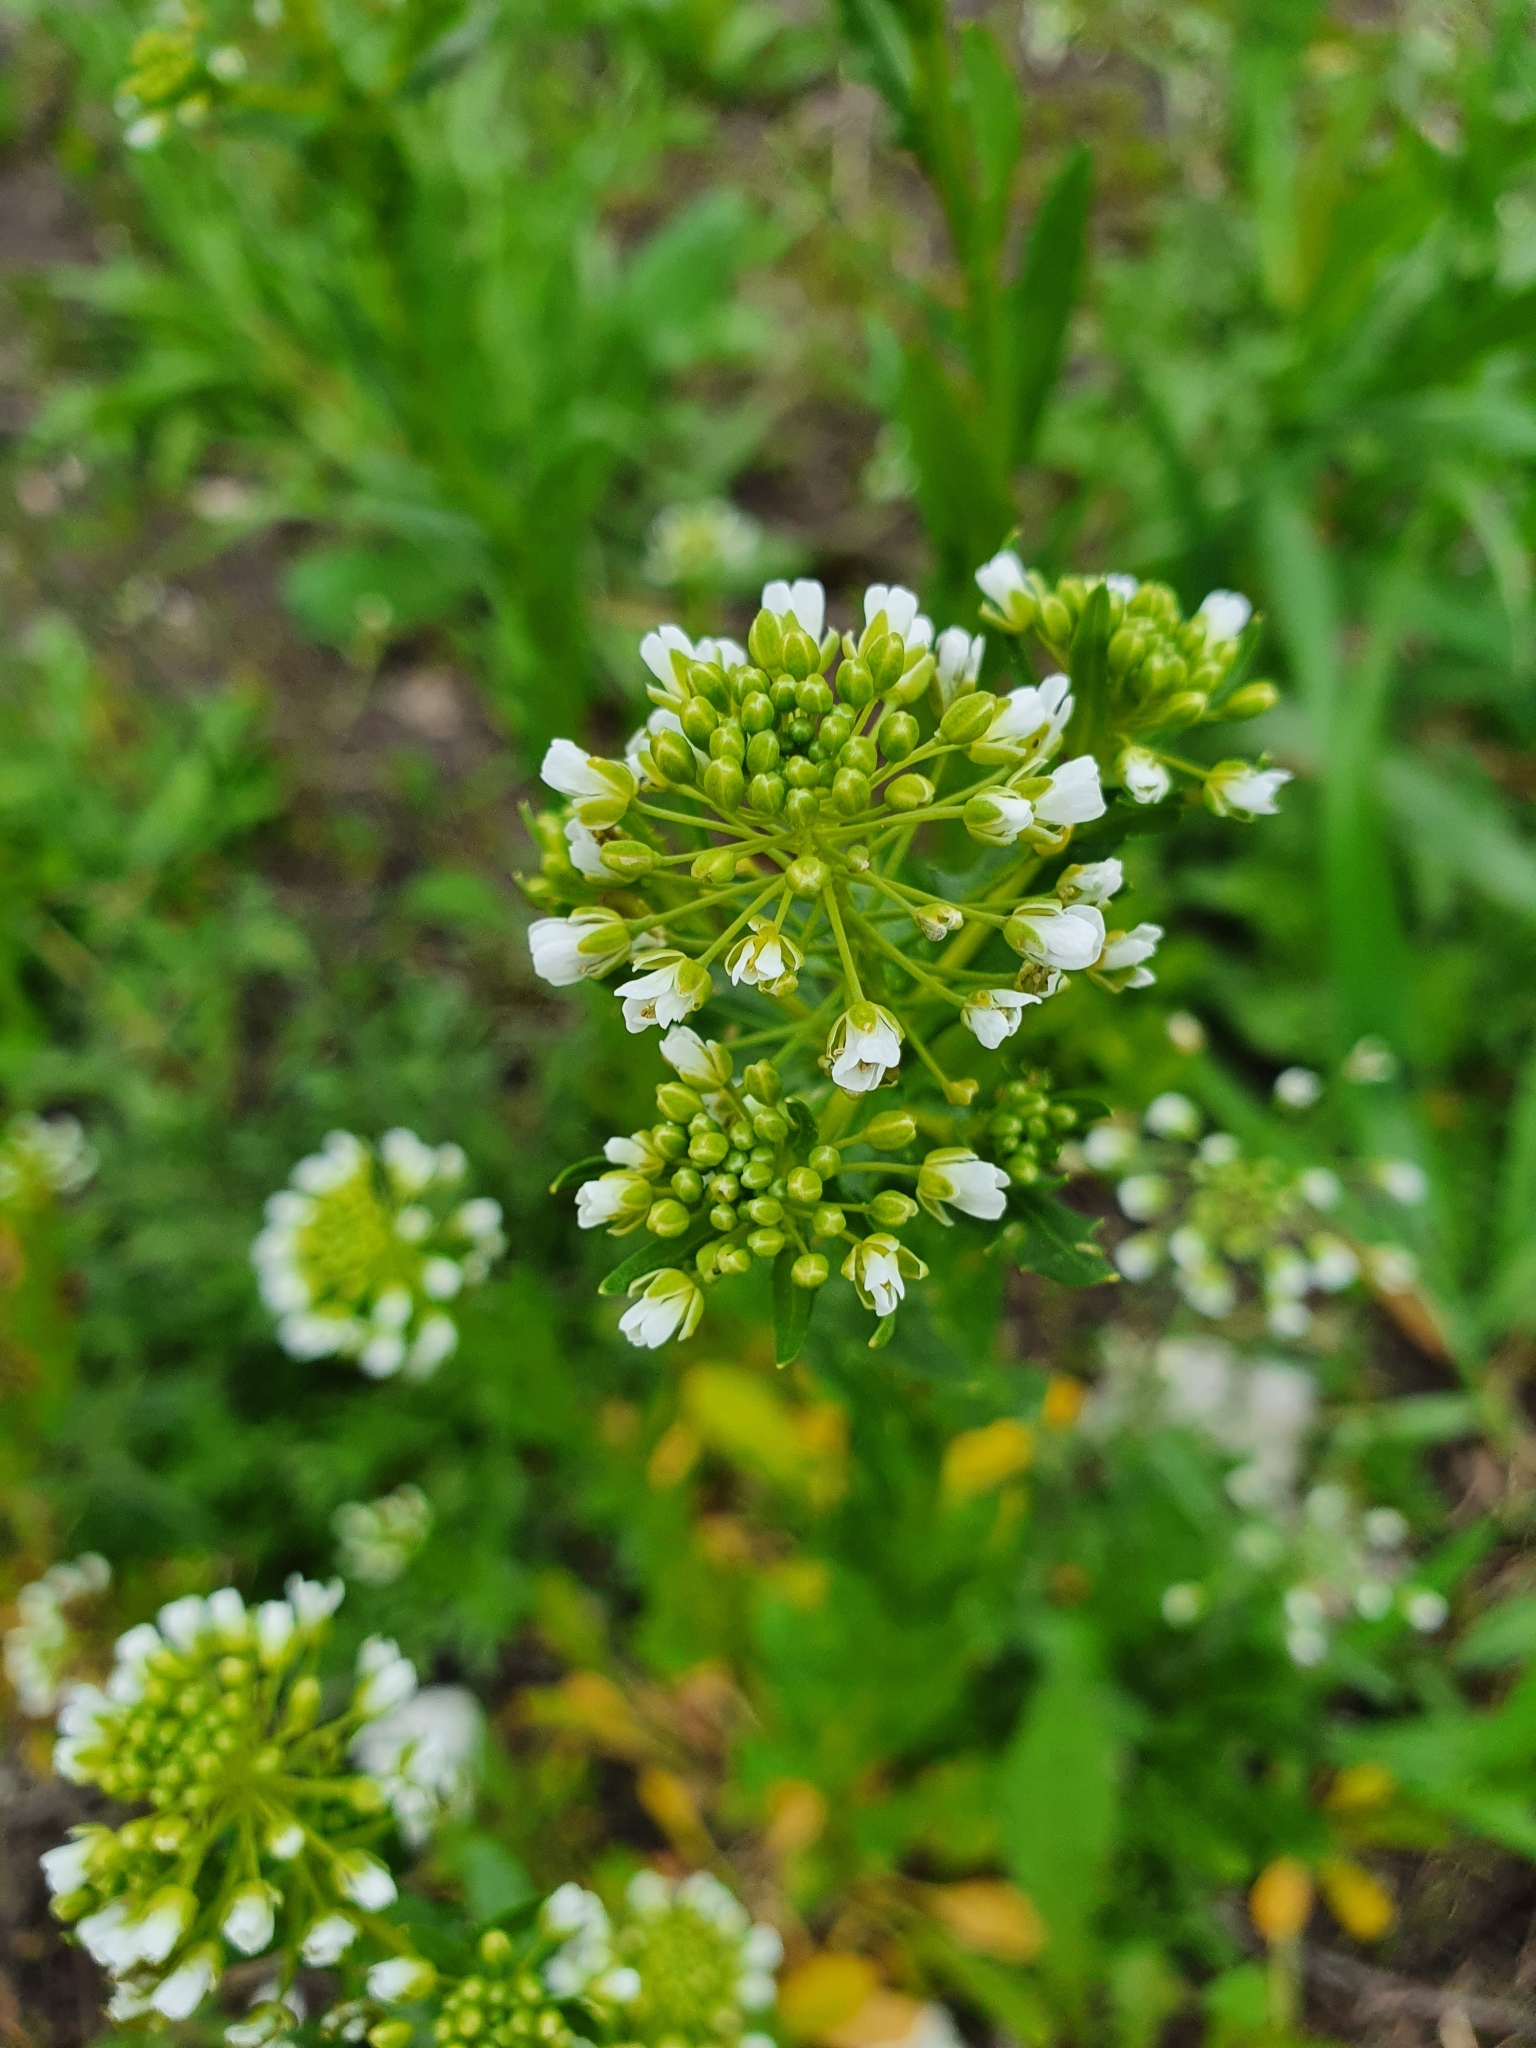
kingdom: Plantae
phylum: Tracheophyta
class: Magnoliopsida
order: Brassicales
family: Brassicaceae
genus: Thlaspi
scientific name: Thlaspi arvense
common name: Field pennycress
